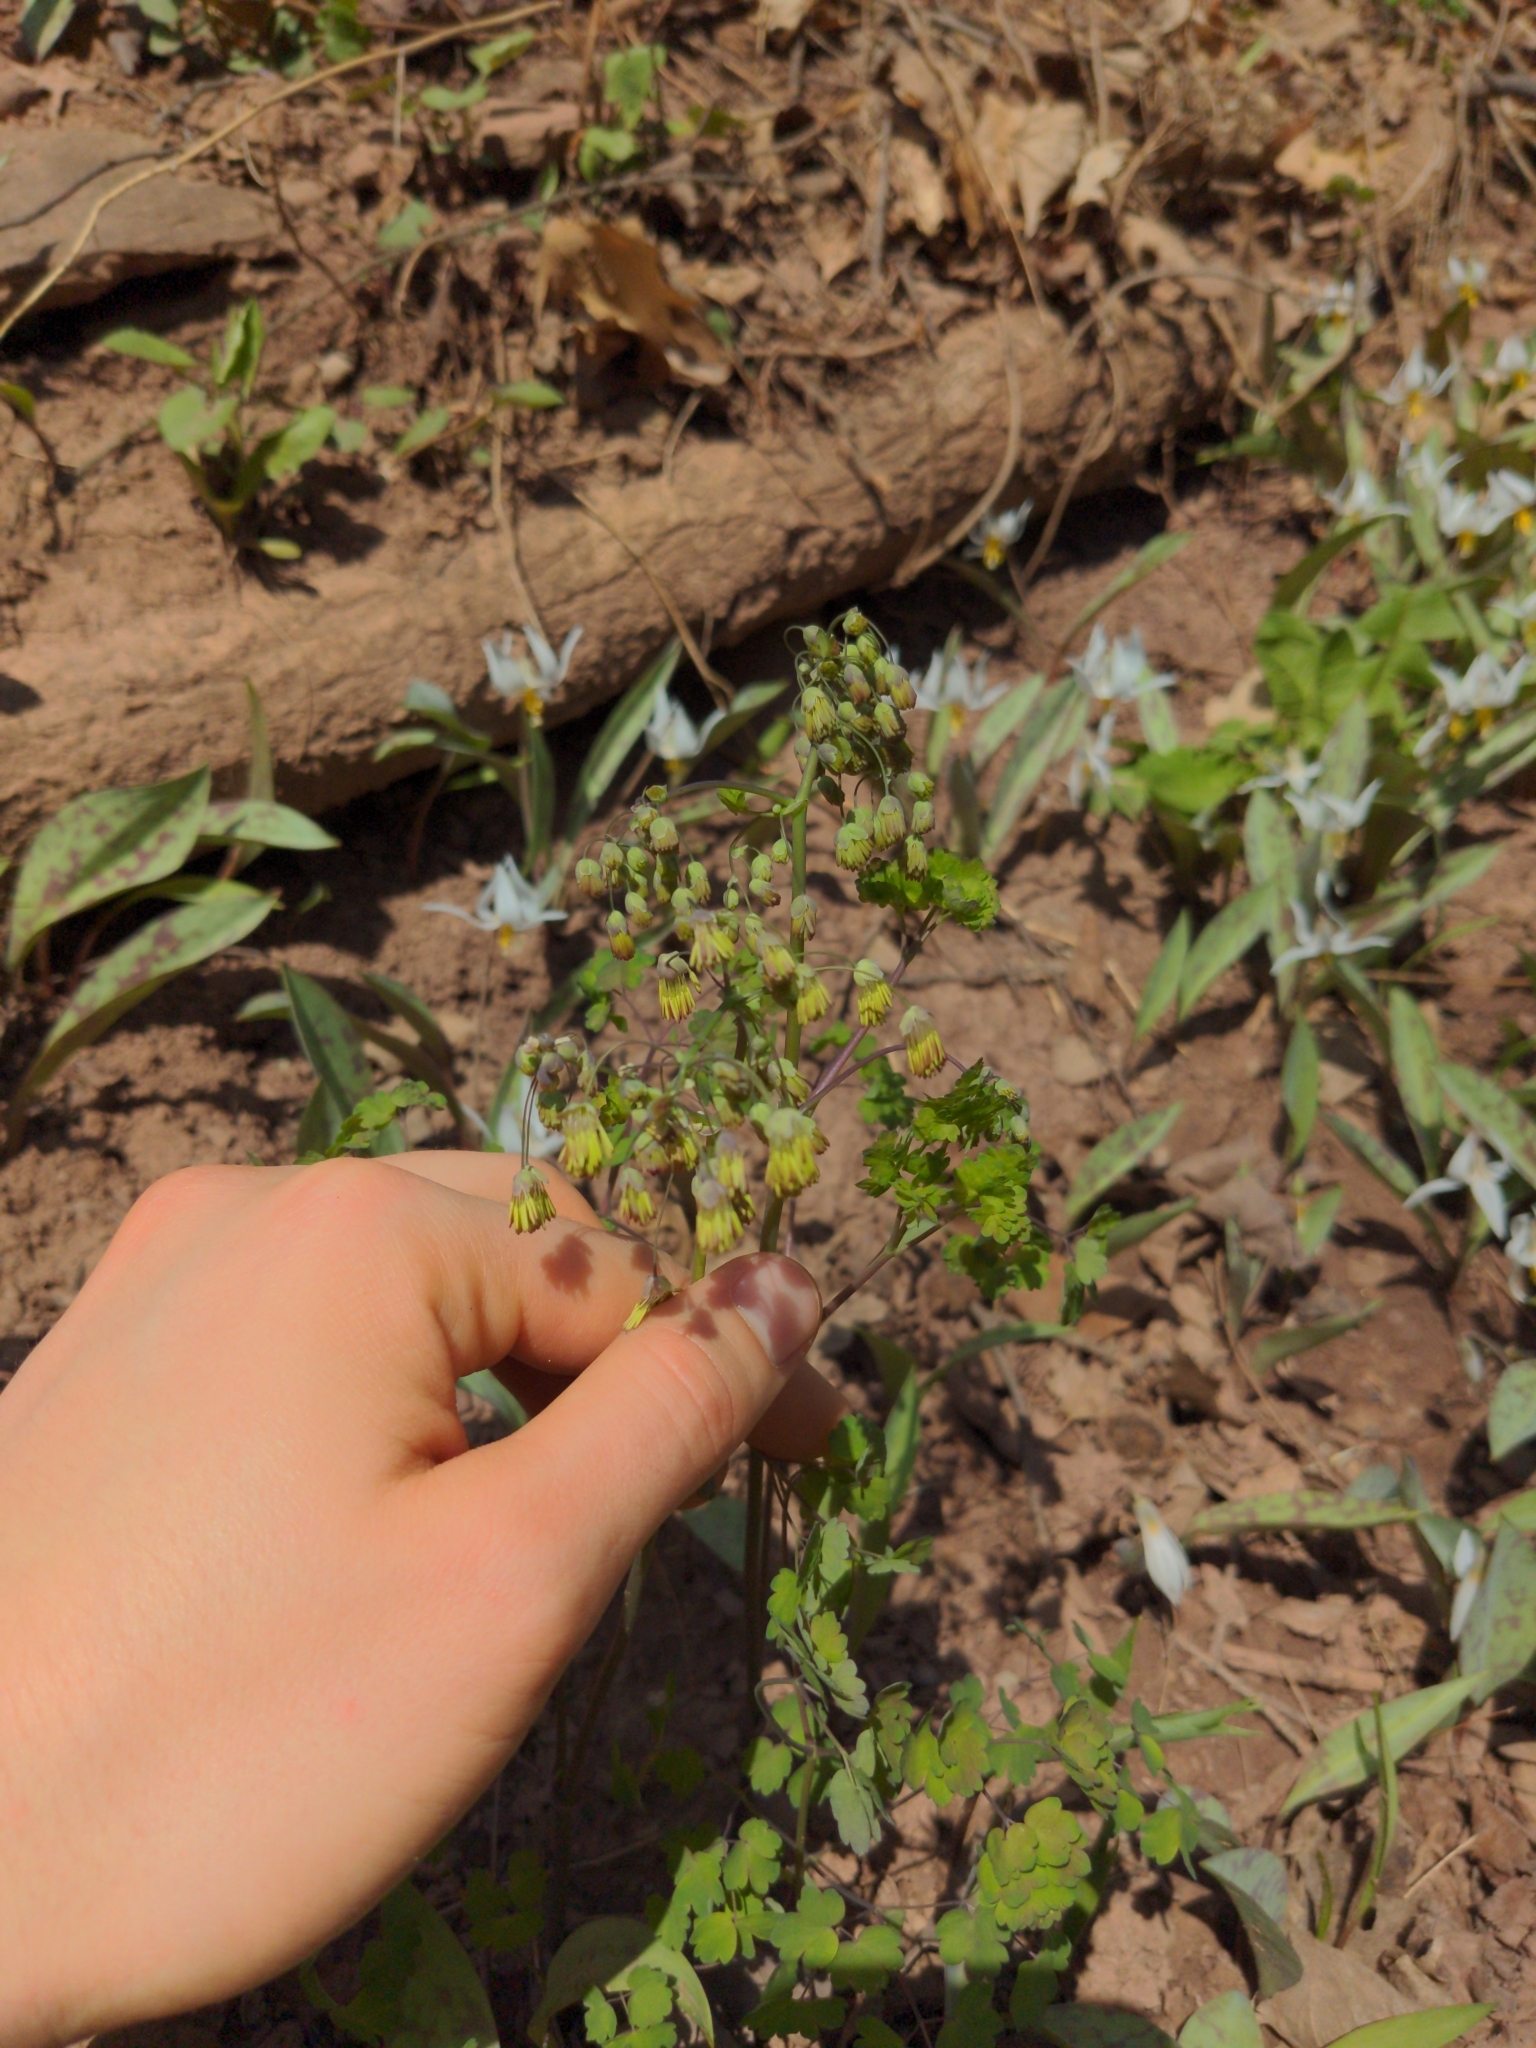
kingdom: Plantae
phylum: Tracheophyta
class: Magnoliopsida
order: Ranunculales
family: Ranunculaceae
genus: Thalictrum
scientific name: Thalictrum dioicum
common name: Early meadow-rue
